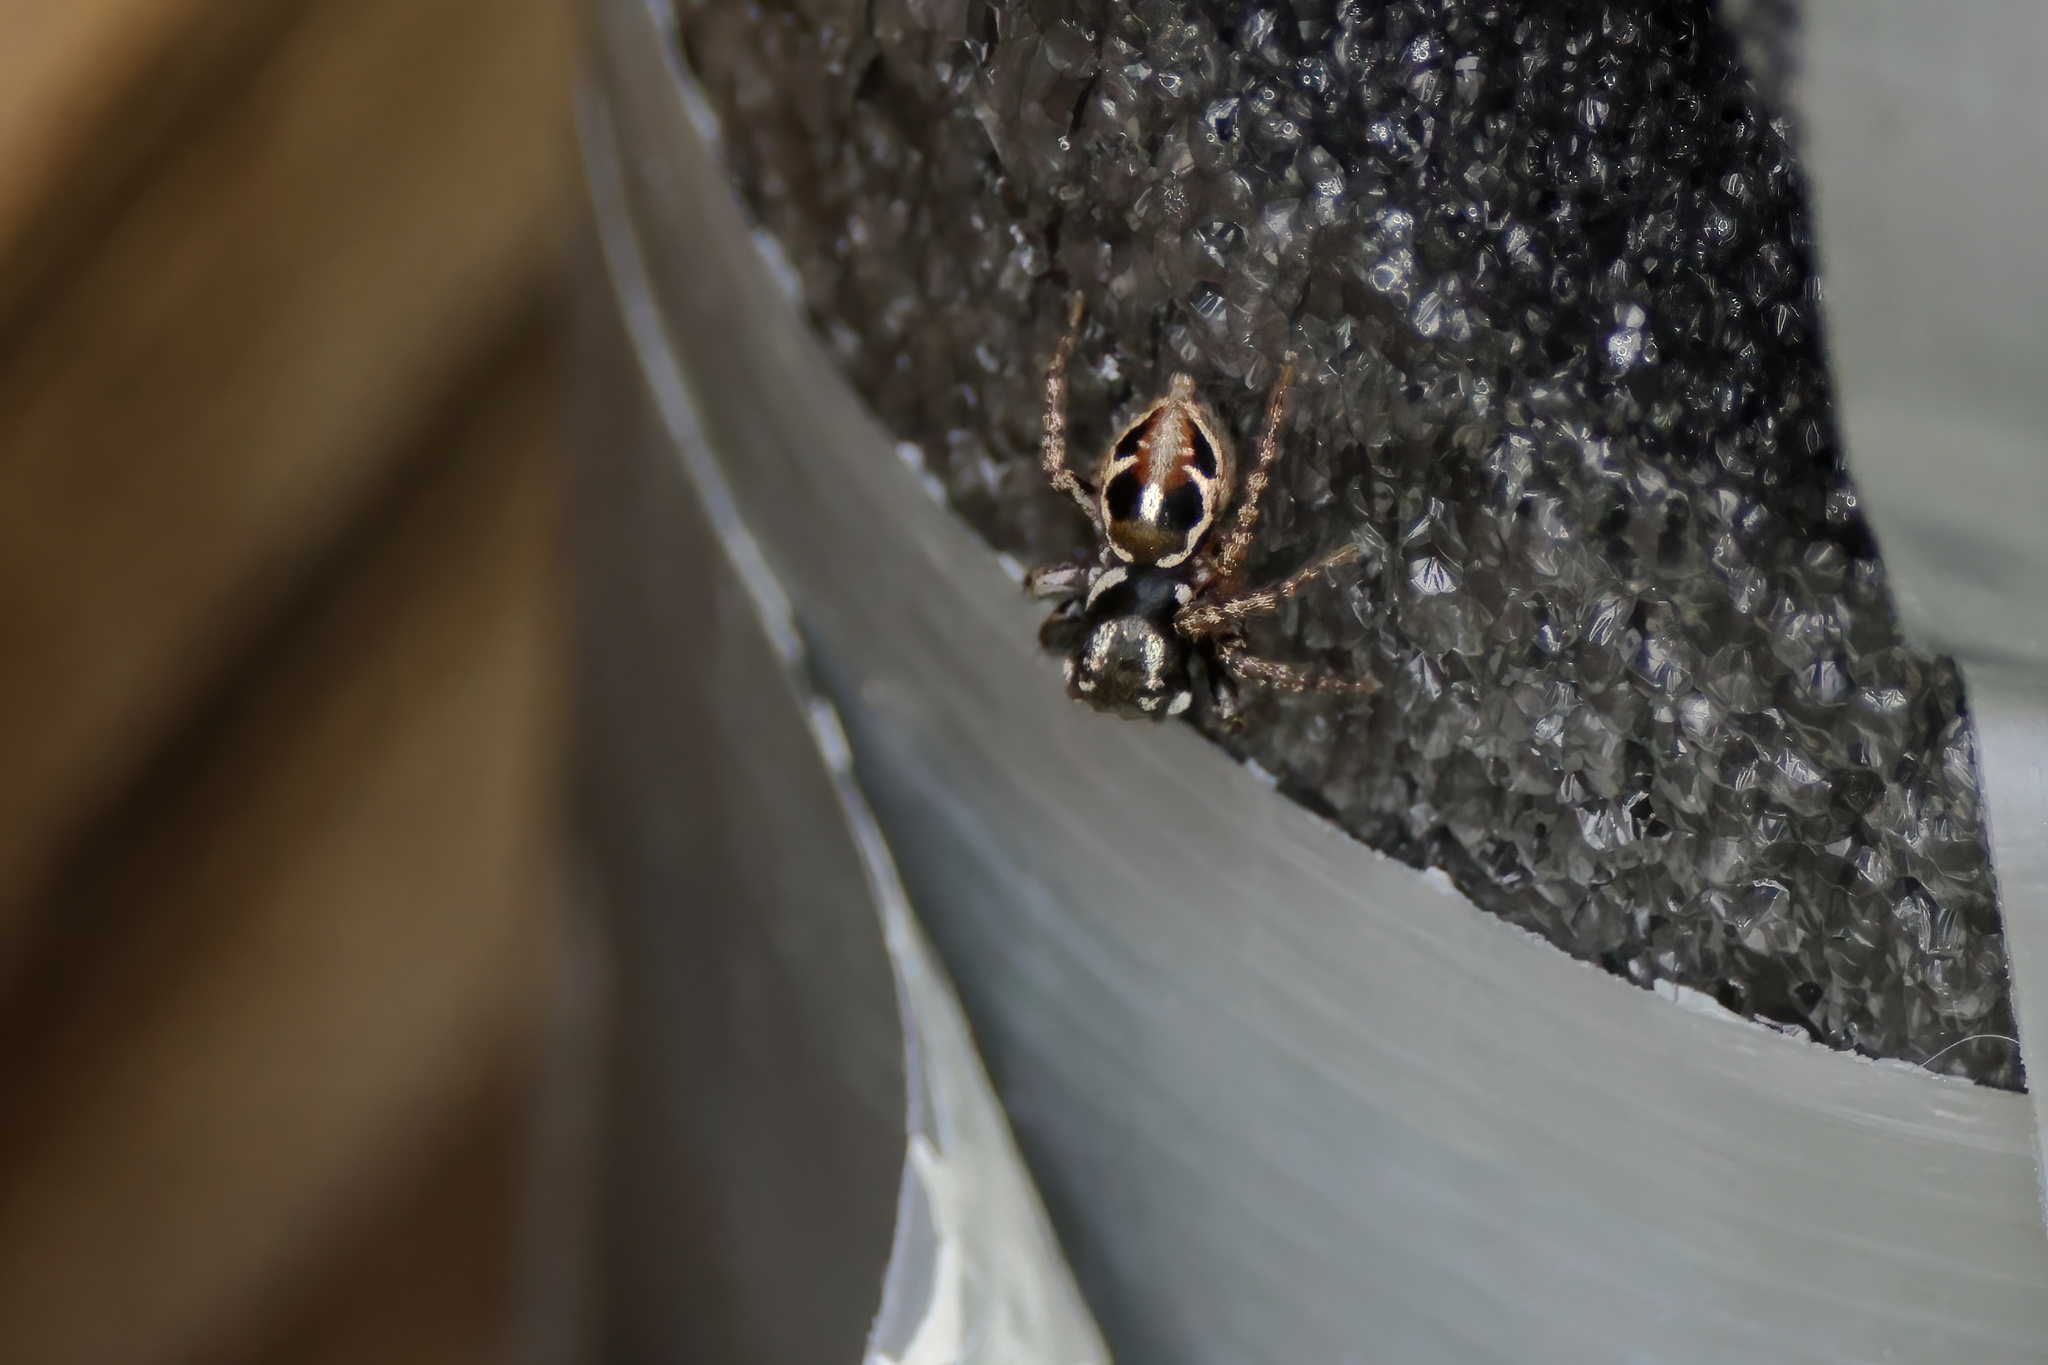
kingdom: Animalia
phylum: Arthropoda
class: Arachnida
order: Araneae
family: Salticidae
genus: Anasaitis
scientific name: Anasaitis canosa
